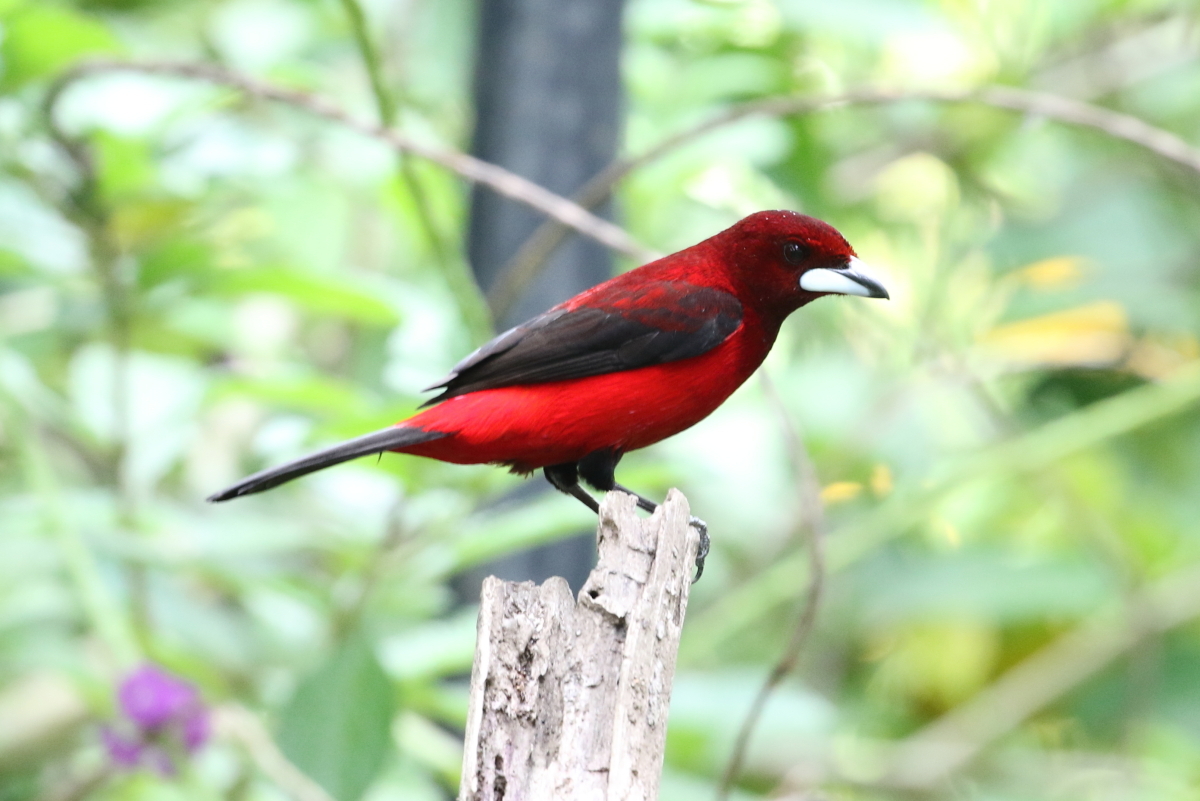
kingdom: Animalia
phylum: Chordata
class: Aves
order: Passeriformes
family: Thraupidae
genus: Ramphocelus
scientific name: Ramphocelus dimidiatus
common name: Crimson-backed tanager
